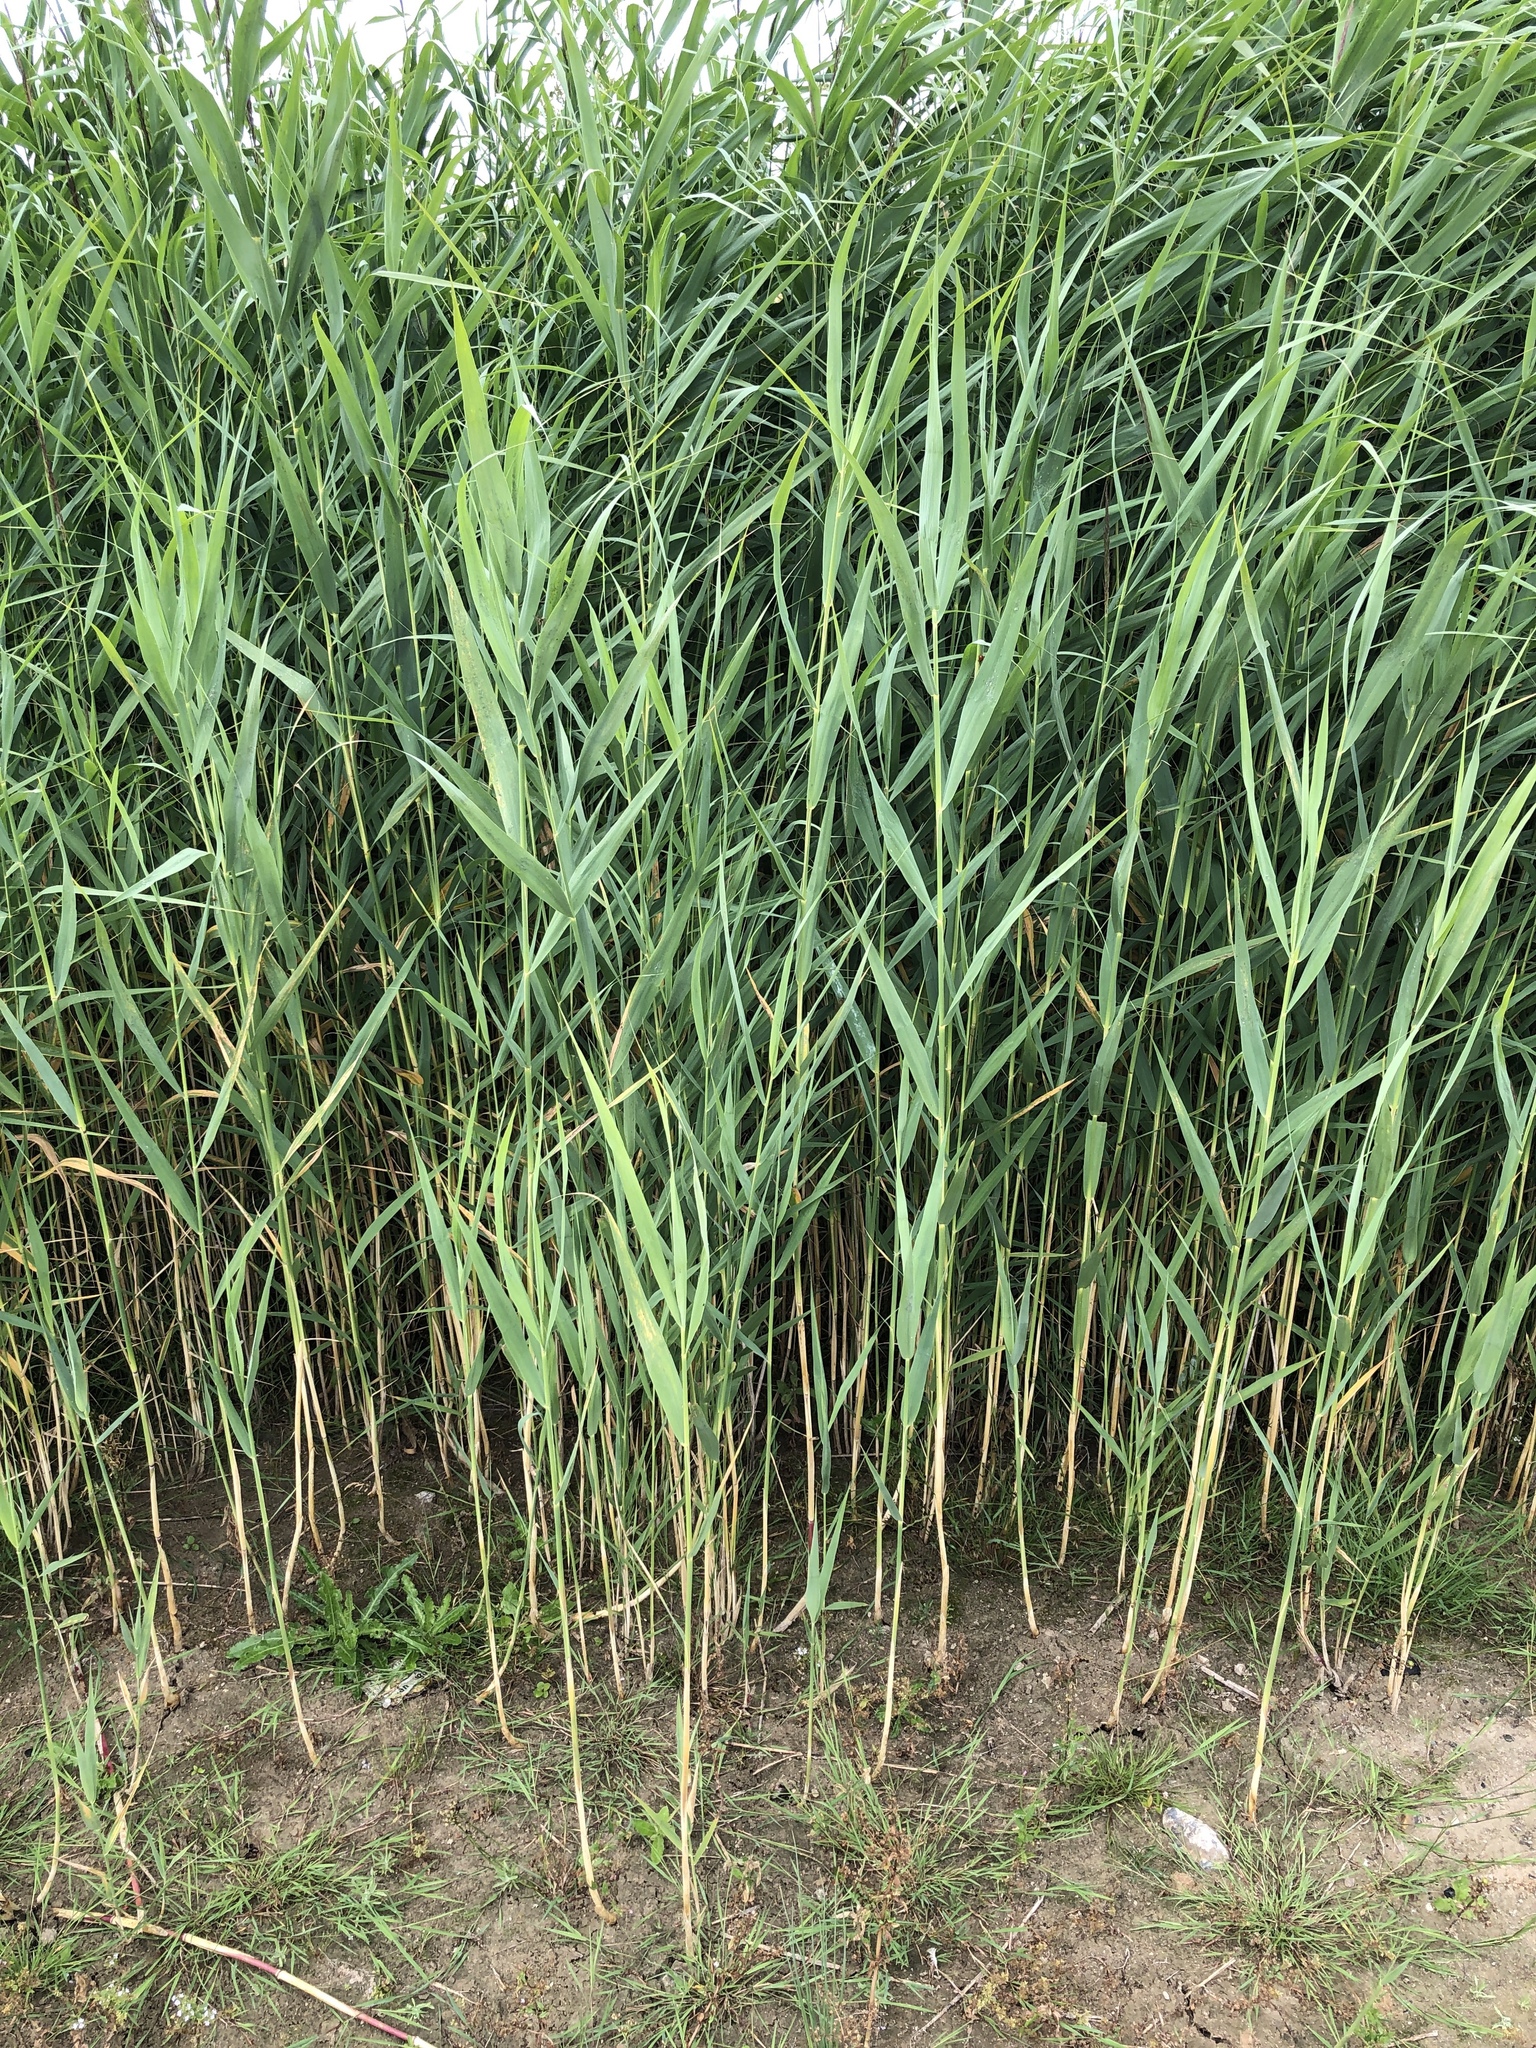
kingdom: Plantae
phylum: Tracheophyta
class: Liliopsida
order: Poales
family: Poaceae
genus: Phragmites
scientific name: Phragmites australis
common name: Common reed
